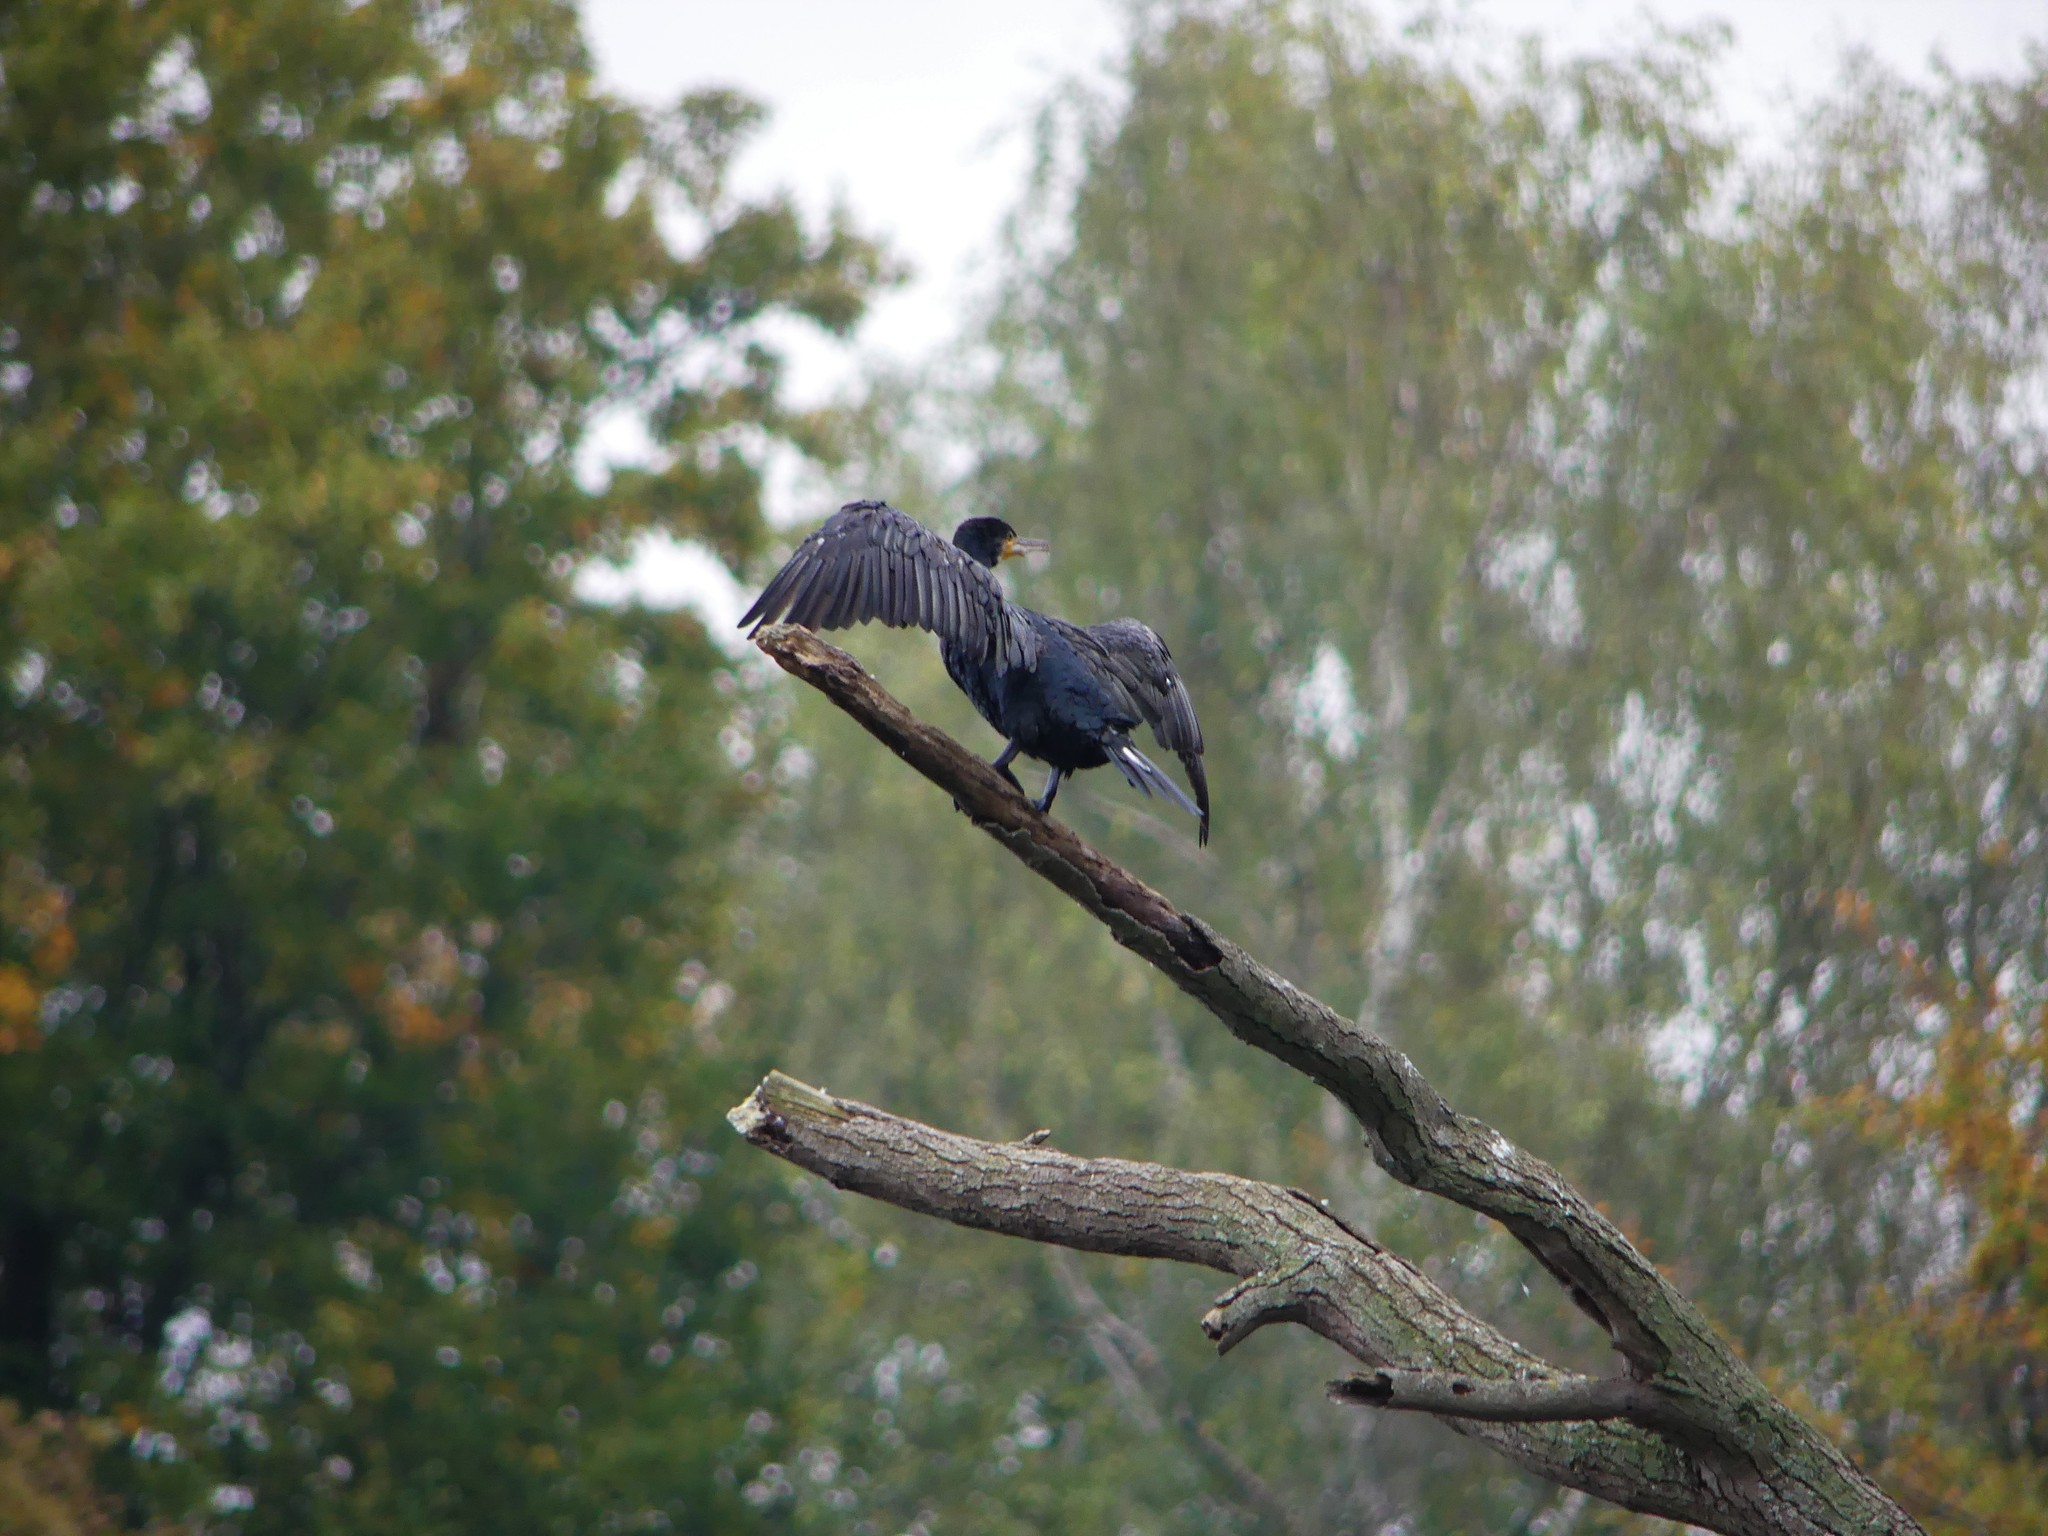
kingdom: Animalia
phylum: Chordata
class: Aves
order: Suliformes
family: Phalacrocoracidae
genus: Phalacrocorax
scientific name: Phalacrocorax carbo
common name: Great cormorant
